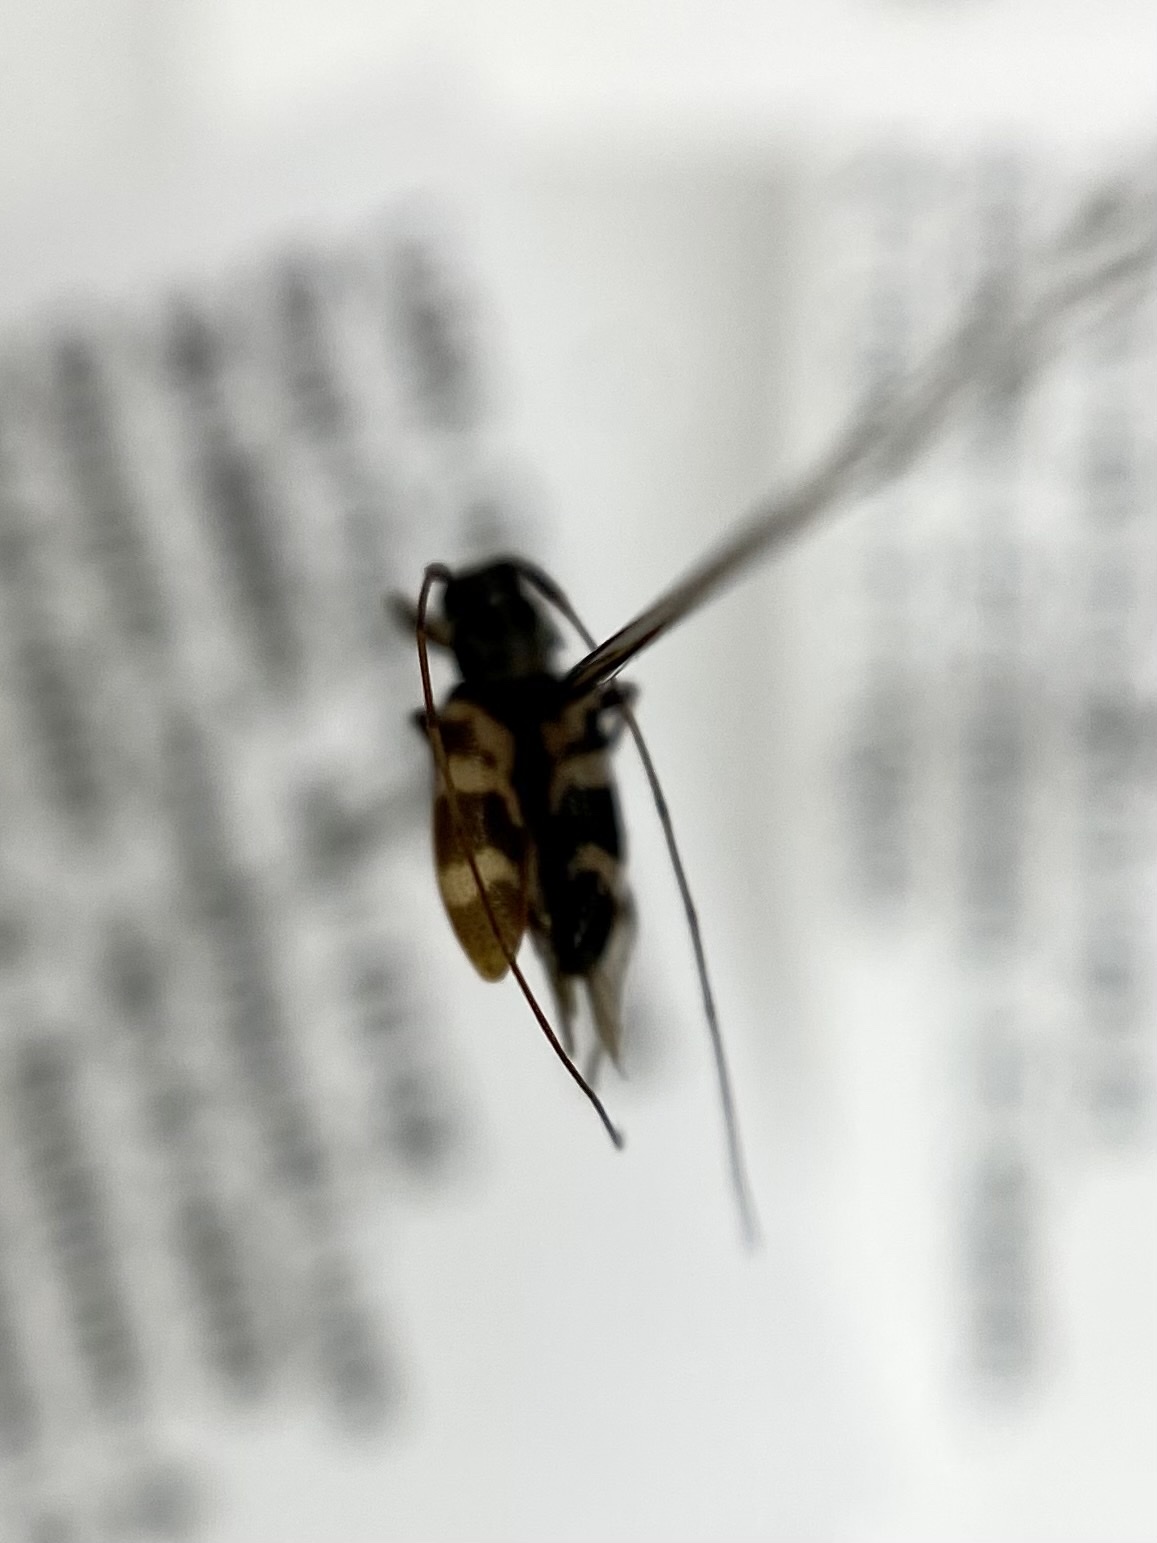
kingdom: Animalia
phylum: Arthropoda
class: Insecta
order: Coleoptera
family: Cerambycidae
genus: Urgleptes
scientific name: Urgleptes facetus
